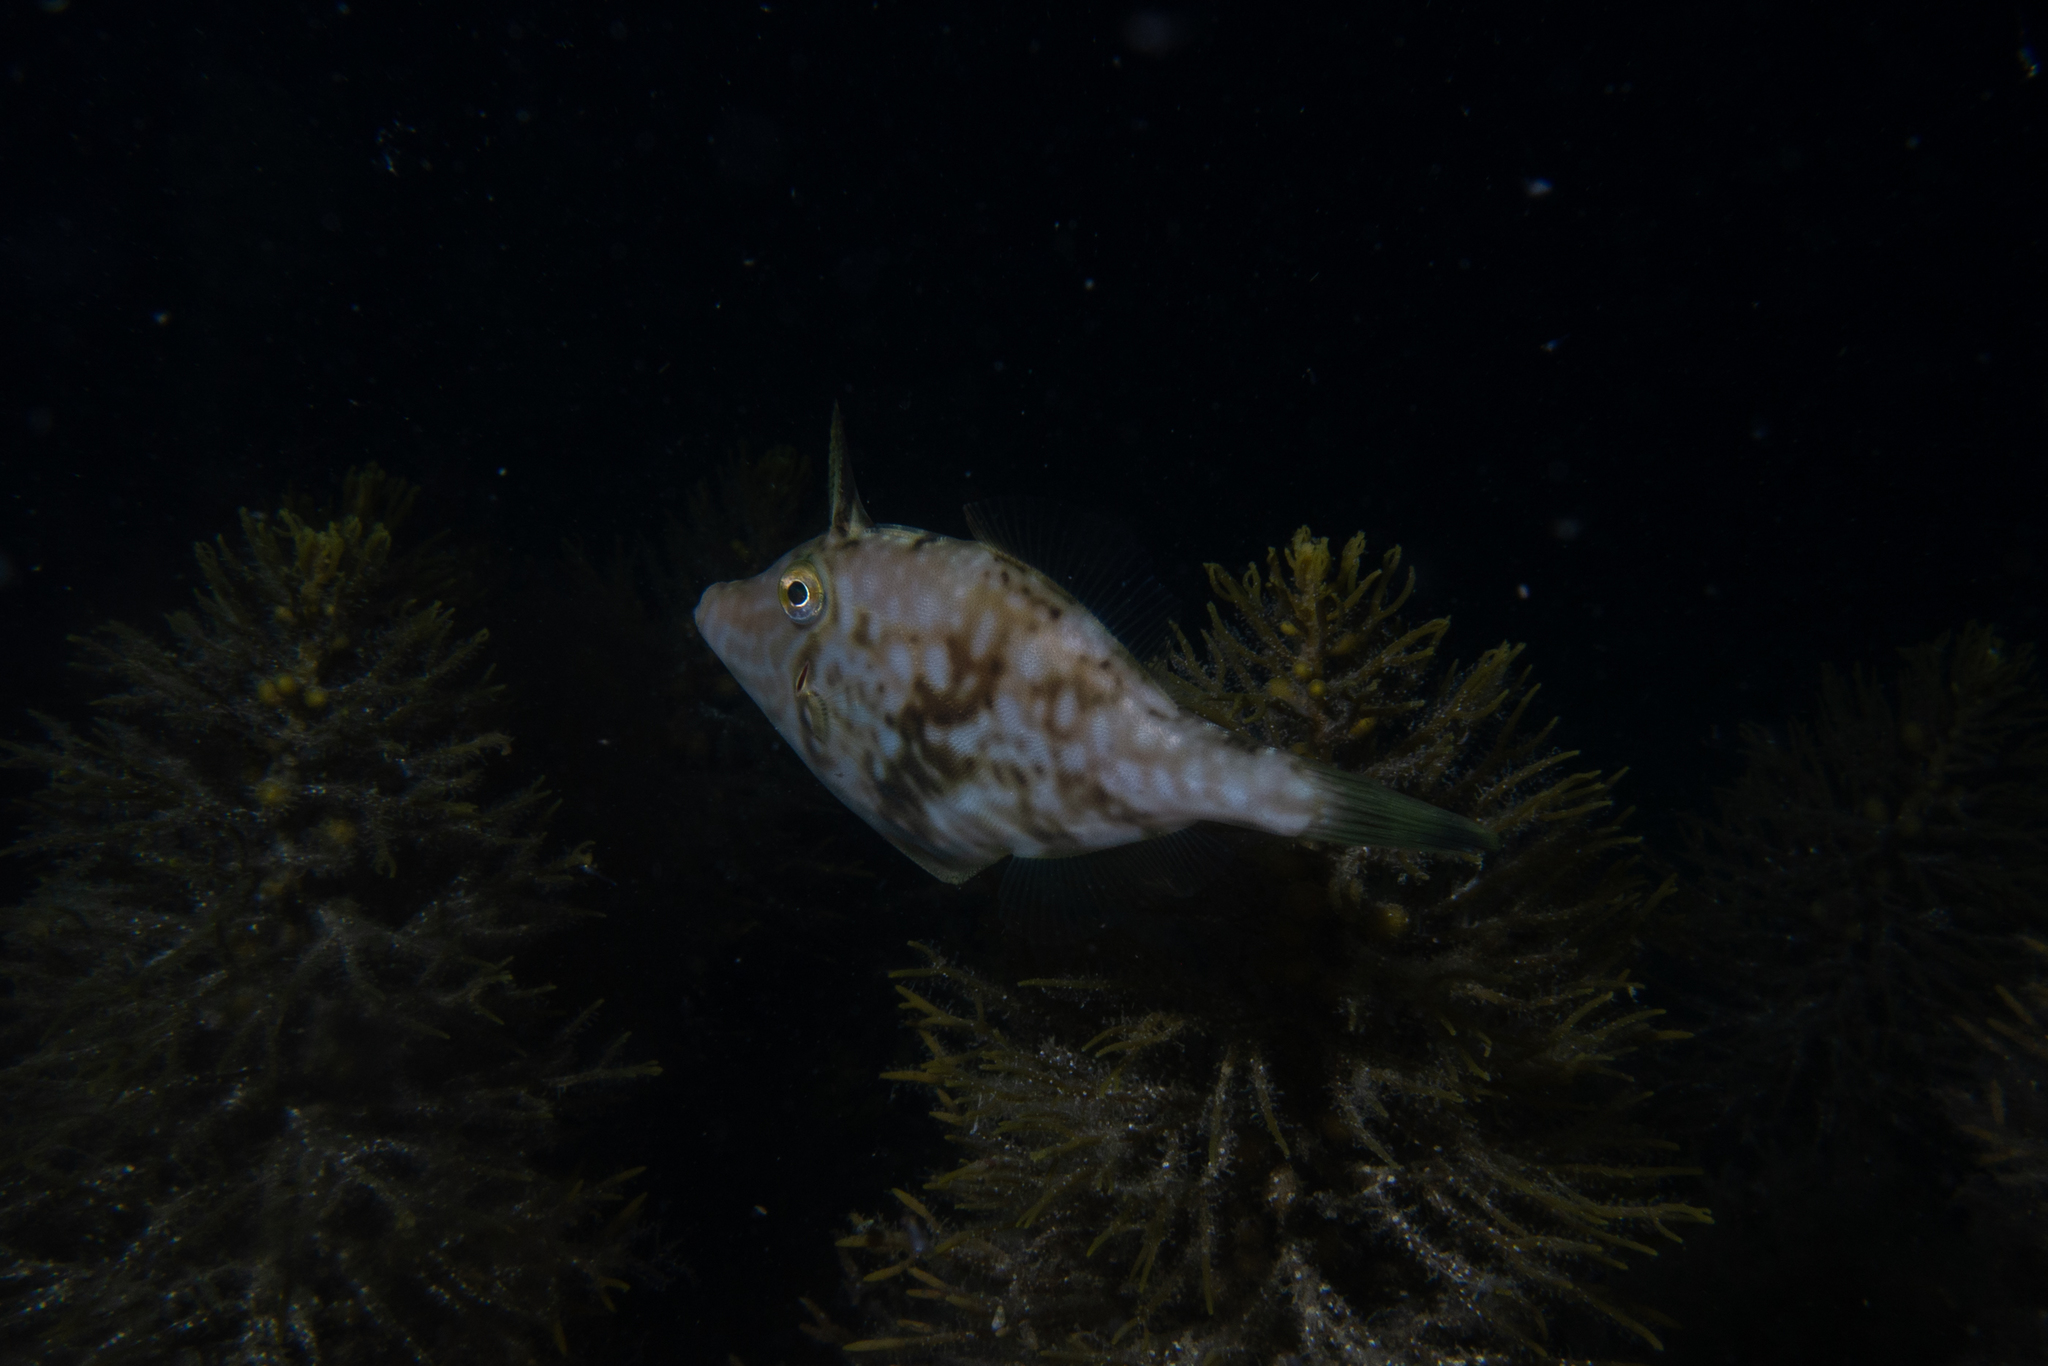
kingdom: Animalia
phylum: Chordata
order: Tetraodontiformes
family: Monacanthidae
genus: Scobinichthys
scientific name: Scobinichthys granulatus
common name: Rough leatherjacket
